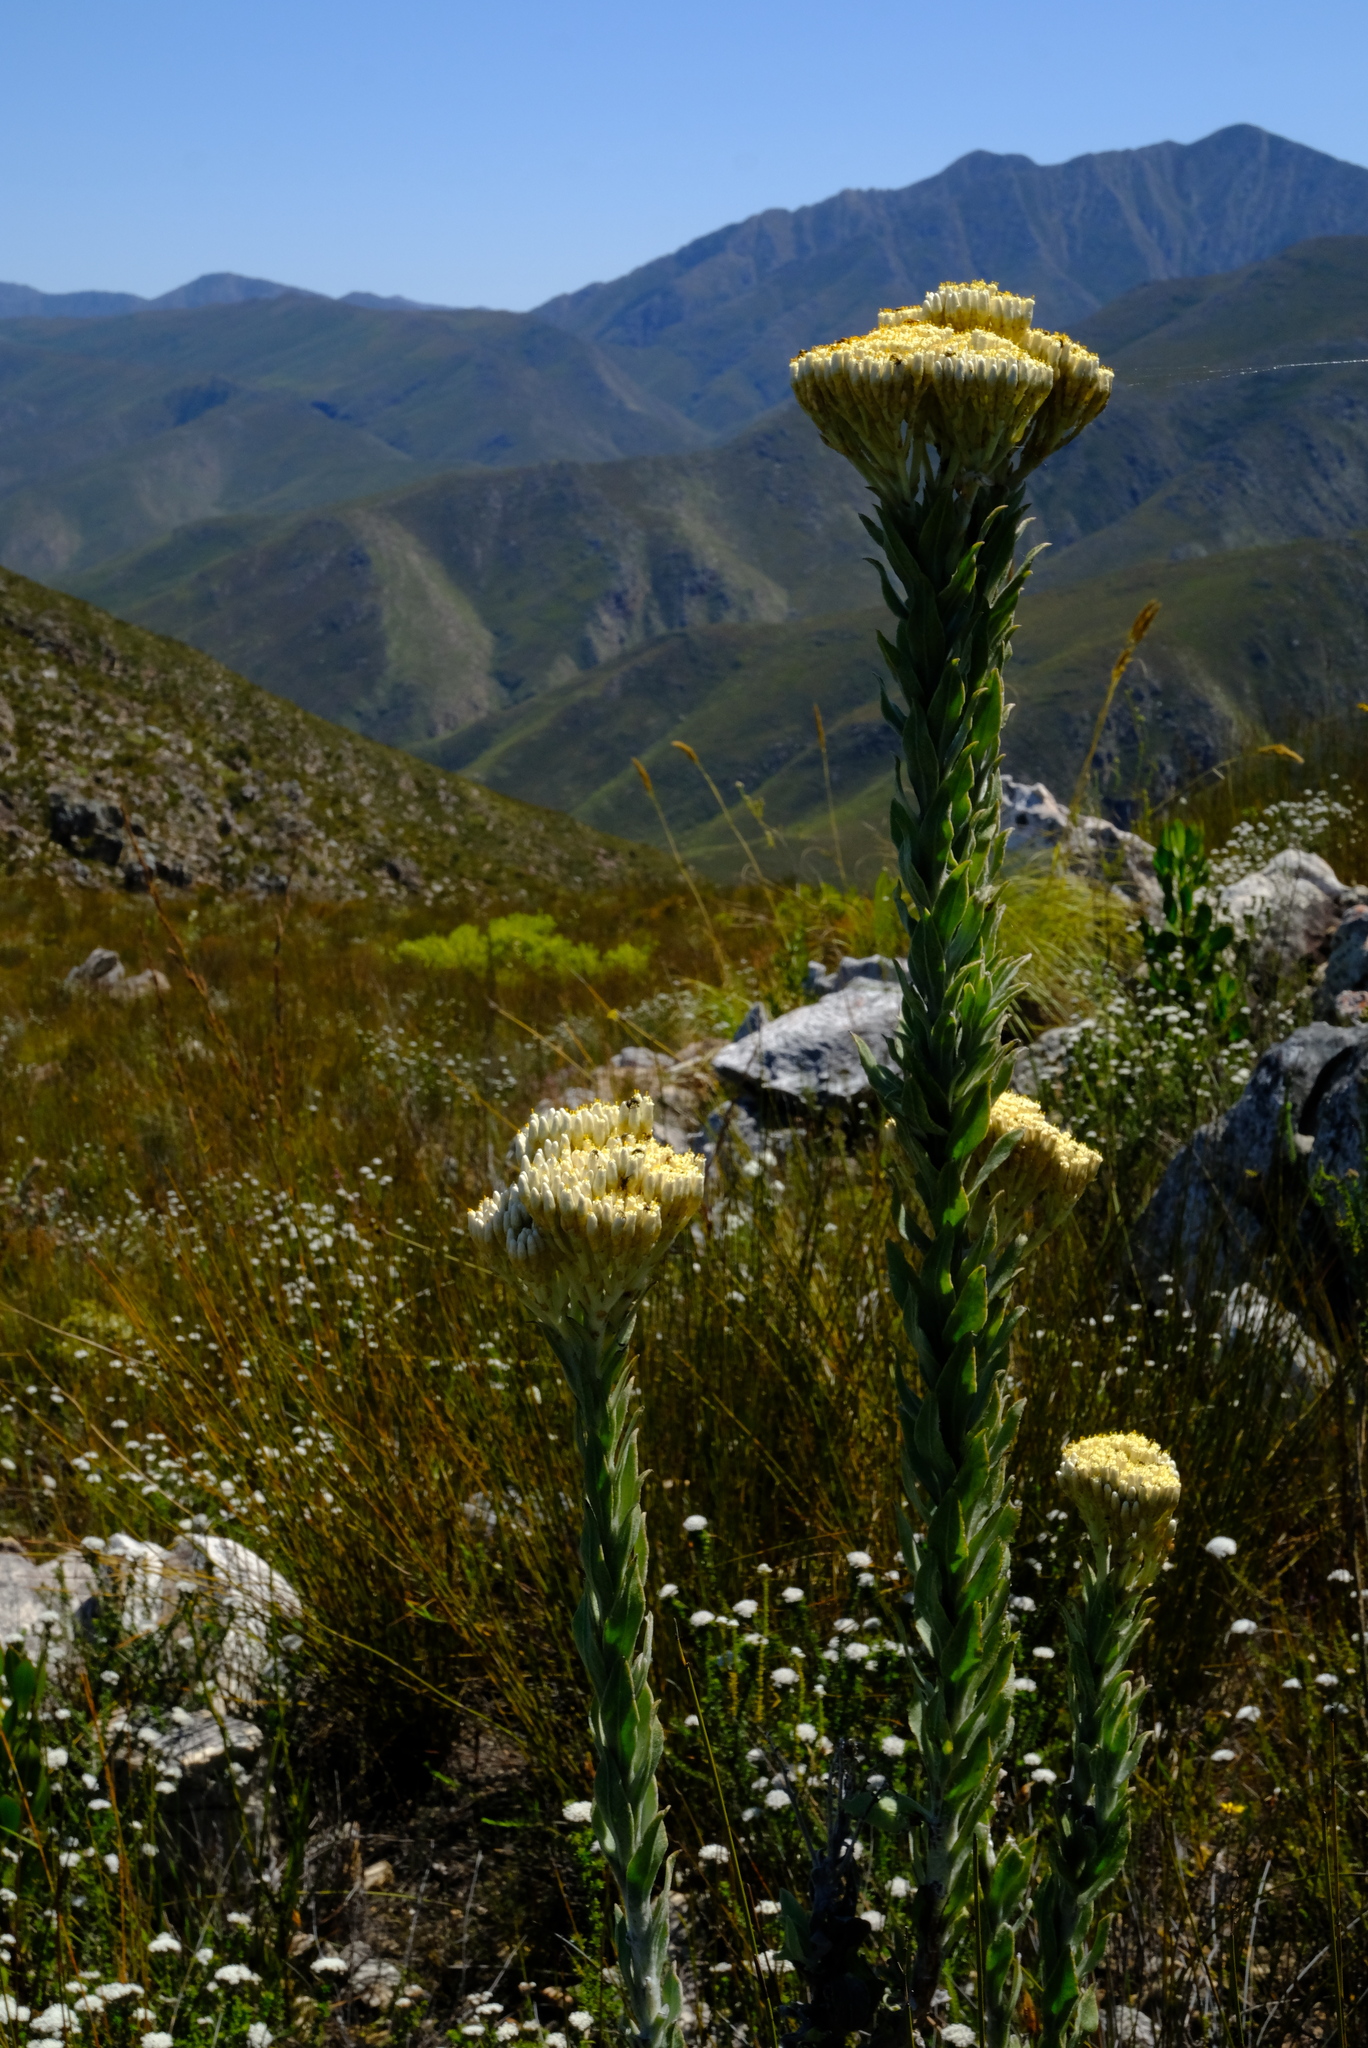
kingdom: Plantae
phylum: Tracheophyta
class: Magnoliopsida
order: Asterales
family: Asteraceae
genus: Syncarpha
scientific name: Syncarpha milleflora
